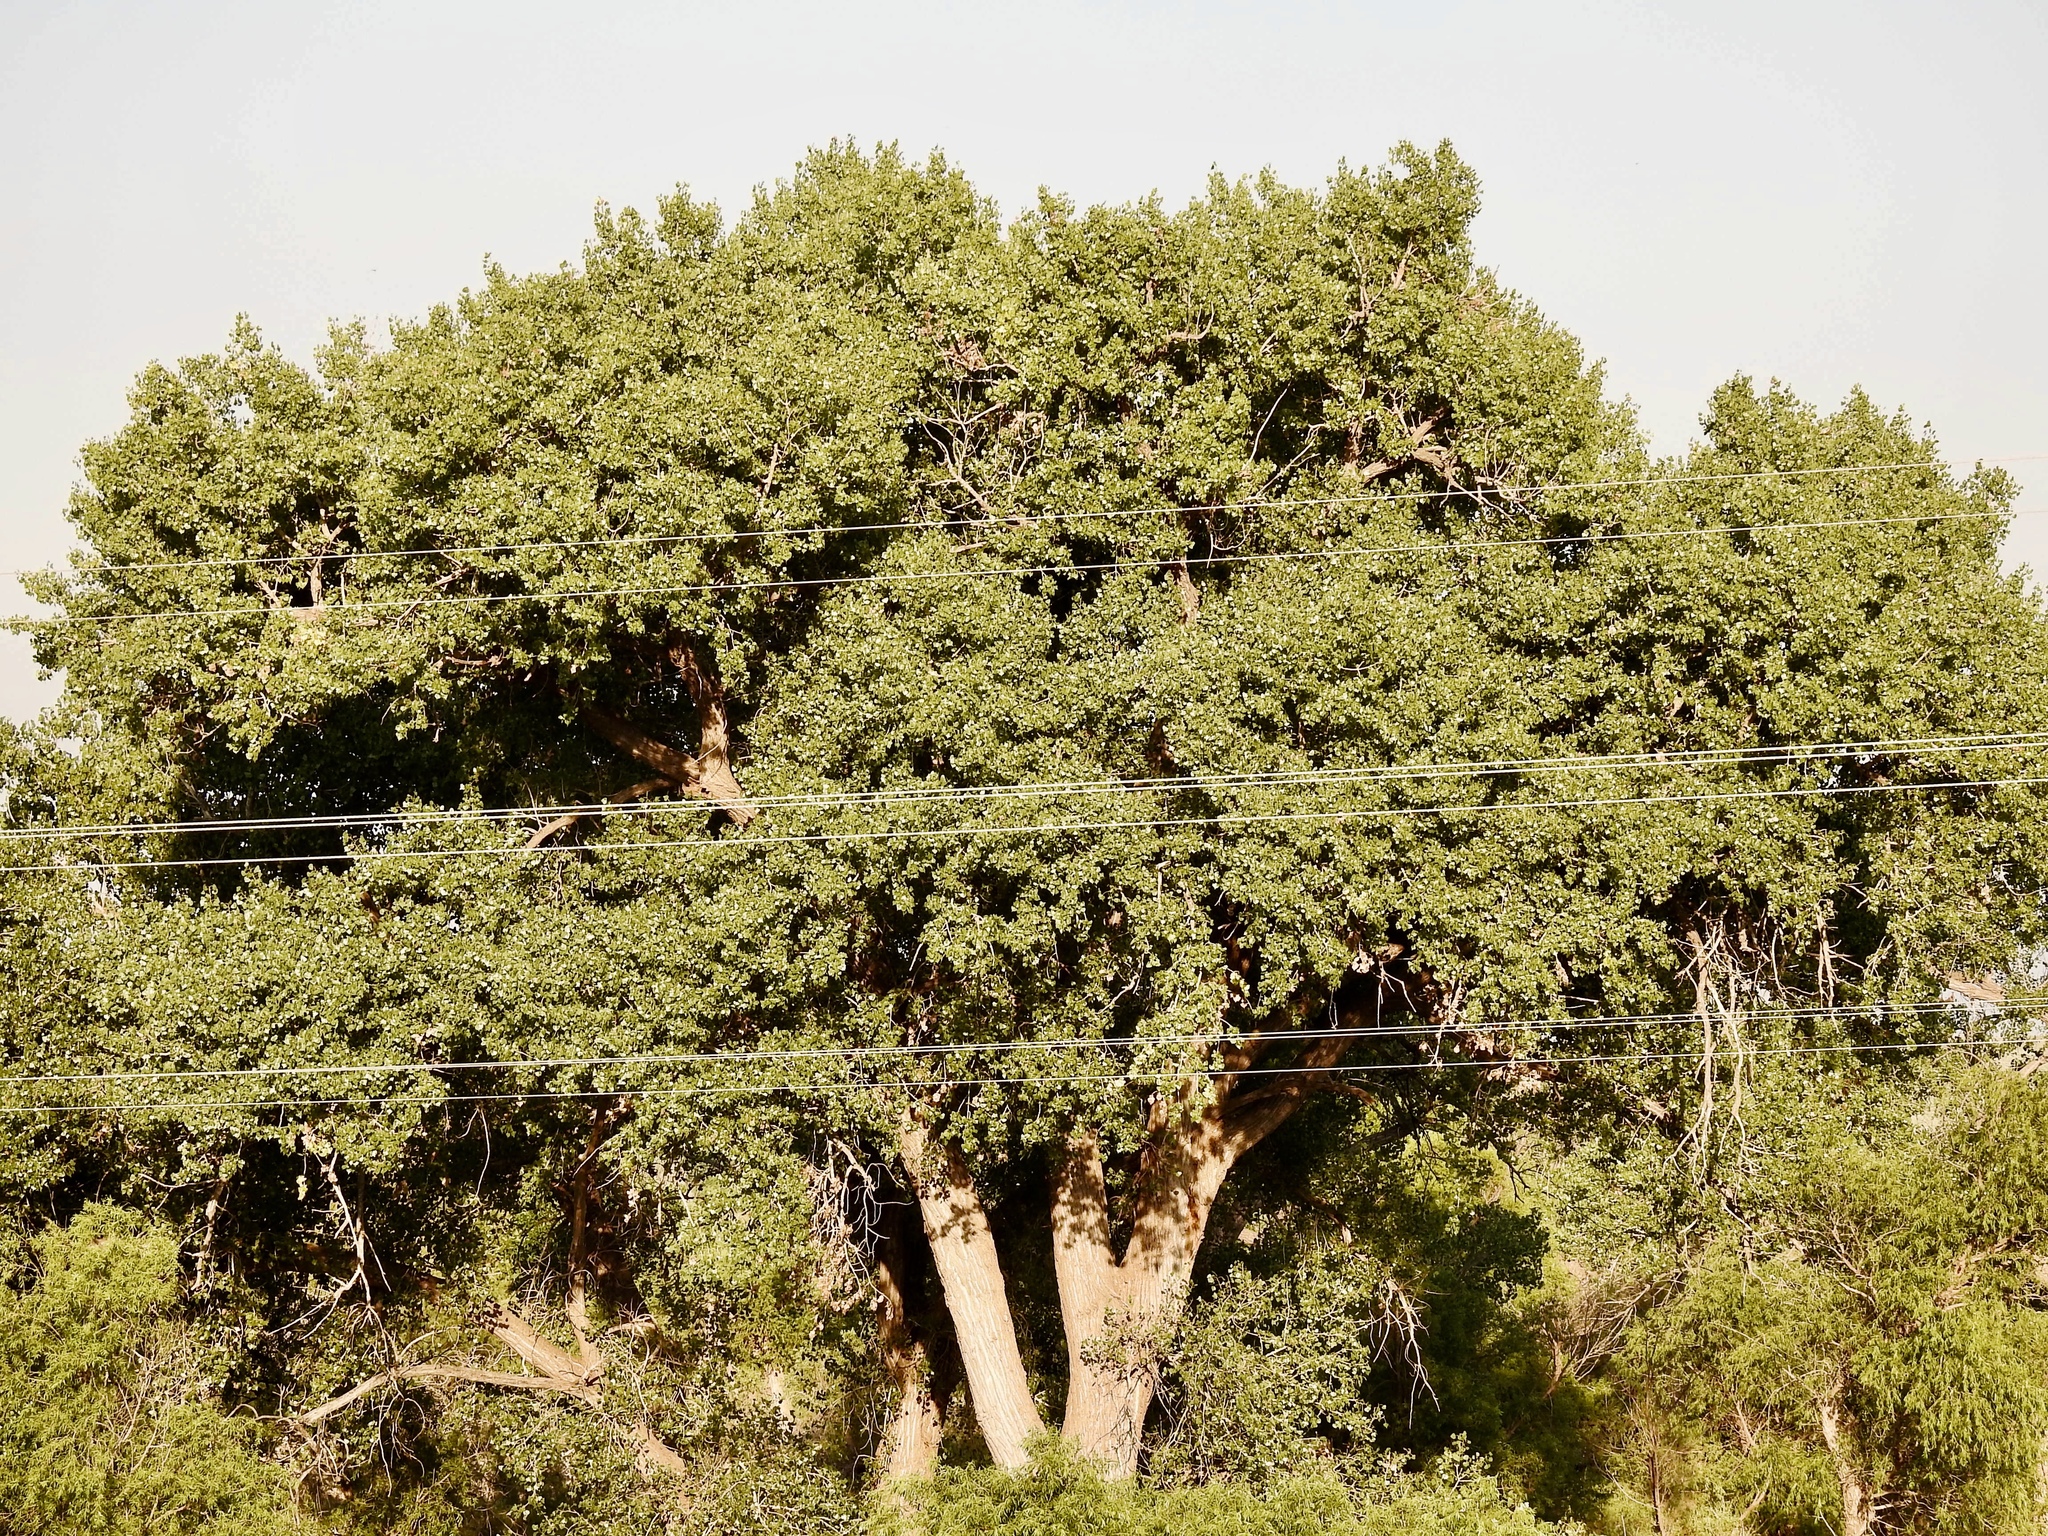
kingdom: Plantae
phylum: Tracheophyta
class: Magnoliopsida
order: Malpighiales
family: Salicaceae
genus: Populus
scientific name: Populus deltoides
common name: Eastern cottonwood
